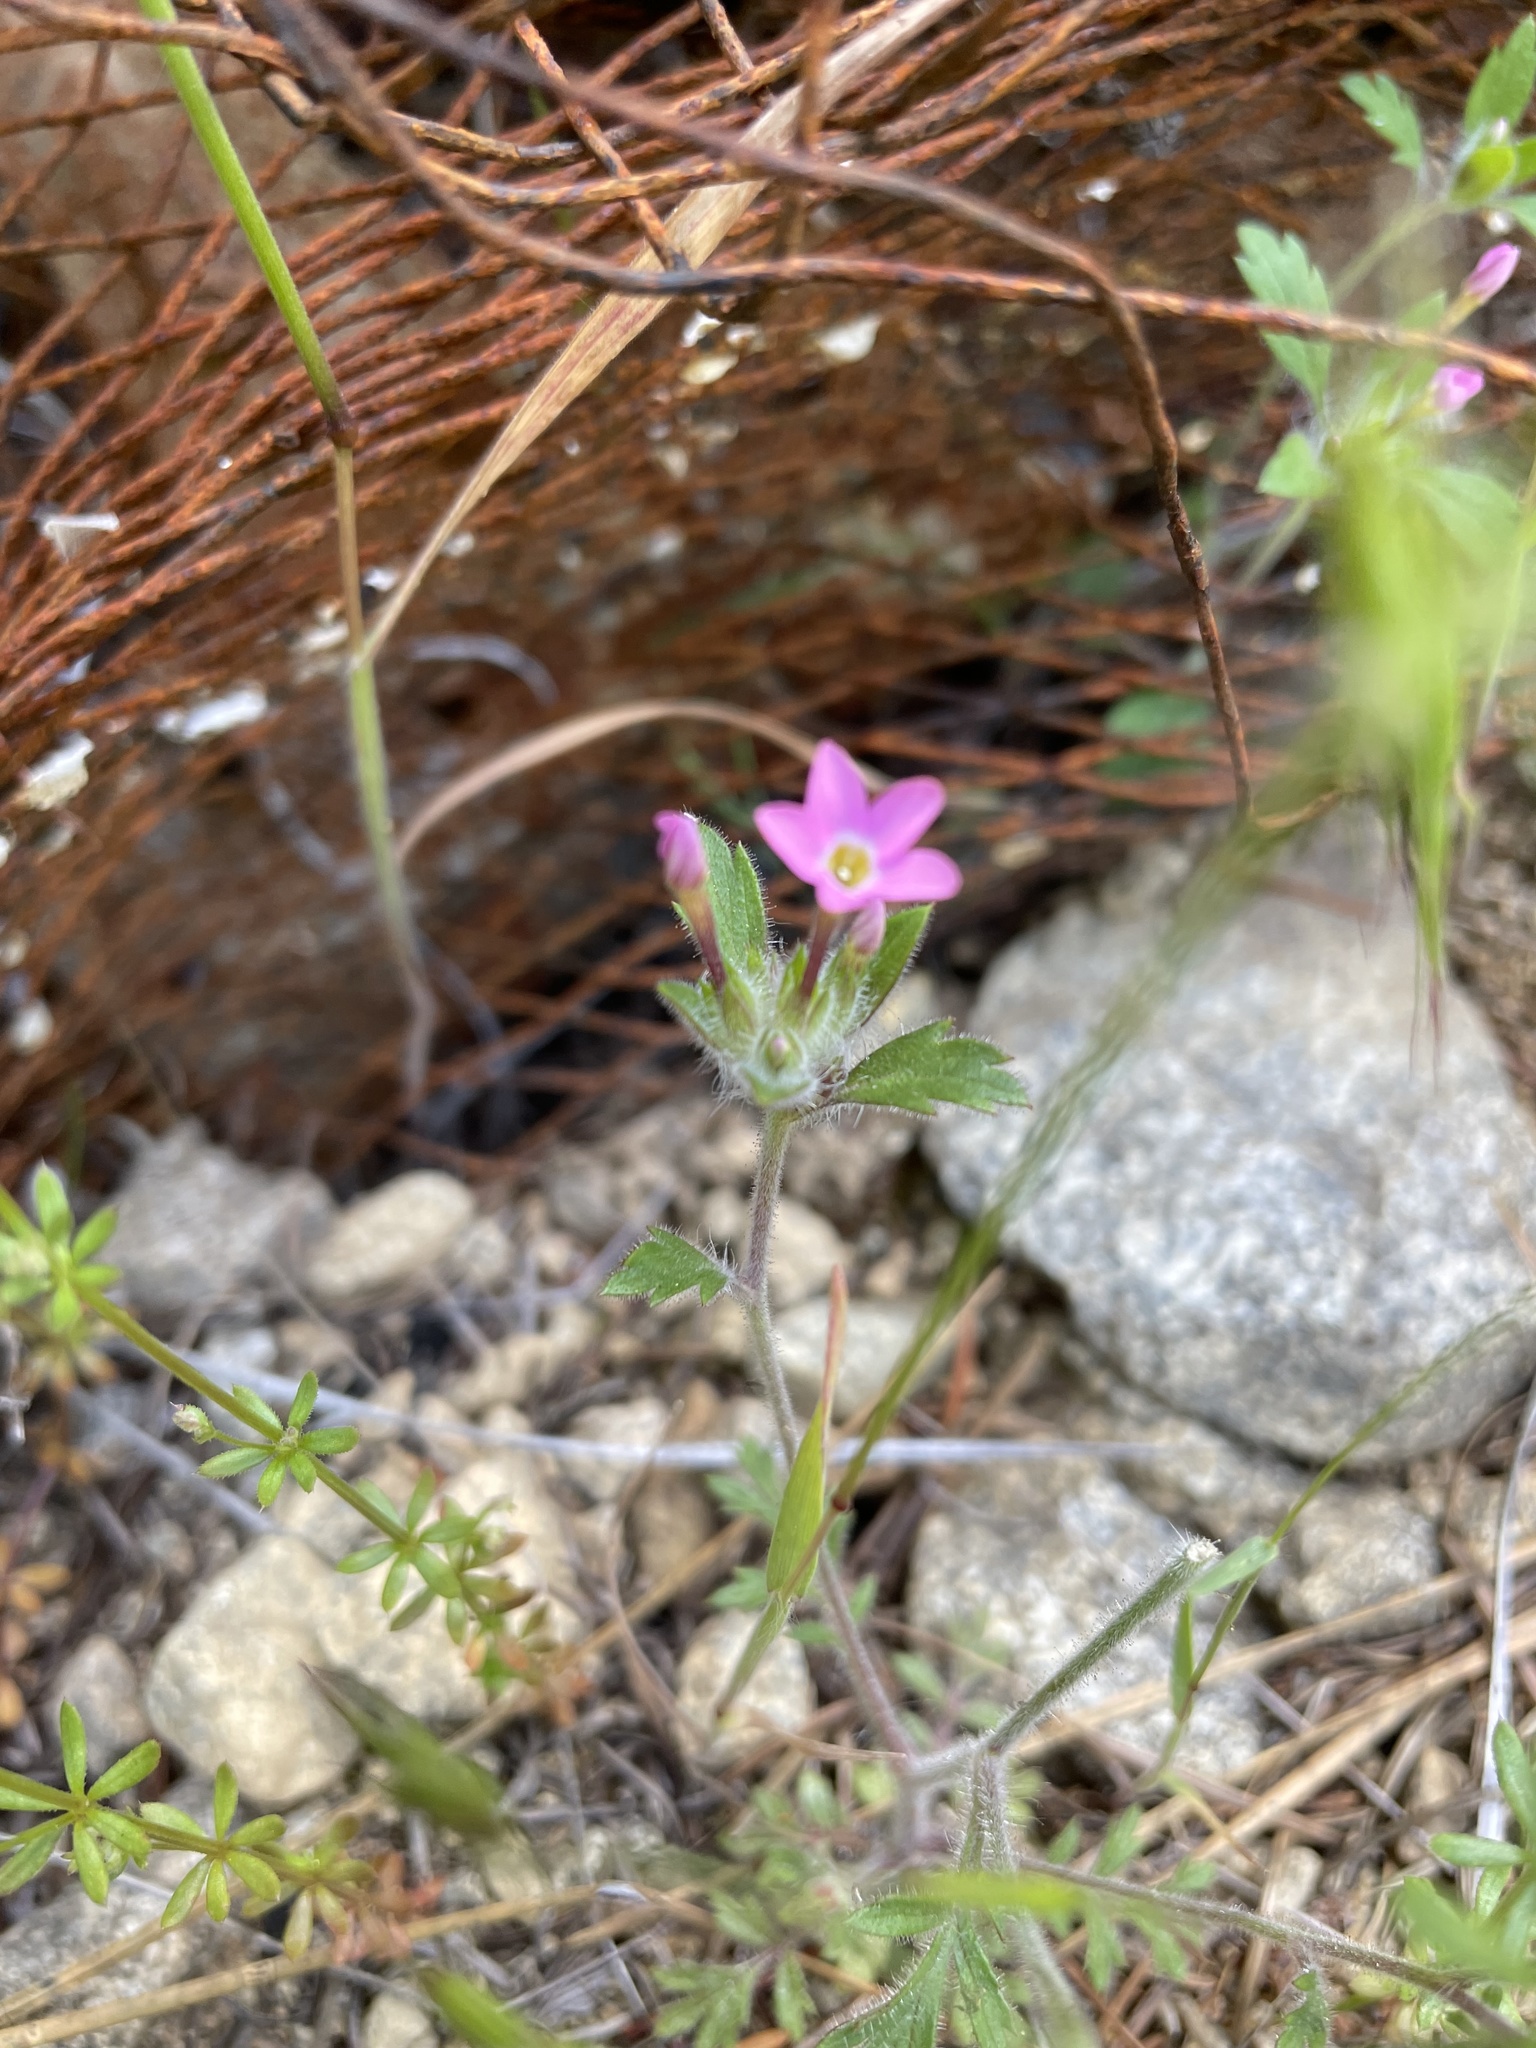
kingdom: Plantae
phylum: Tracheophyta
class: Magnoliopsida
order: Ericales
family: Polemoniaceae
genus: Collomia
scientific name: Collomia heterophylla
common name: Variable-leaved collomia
